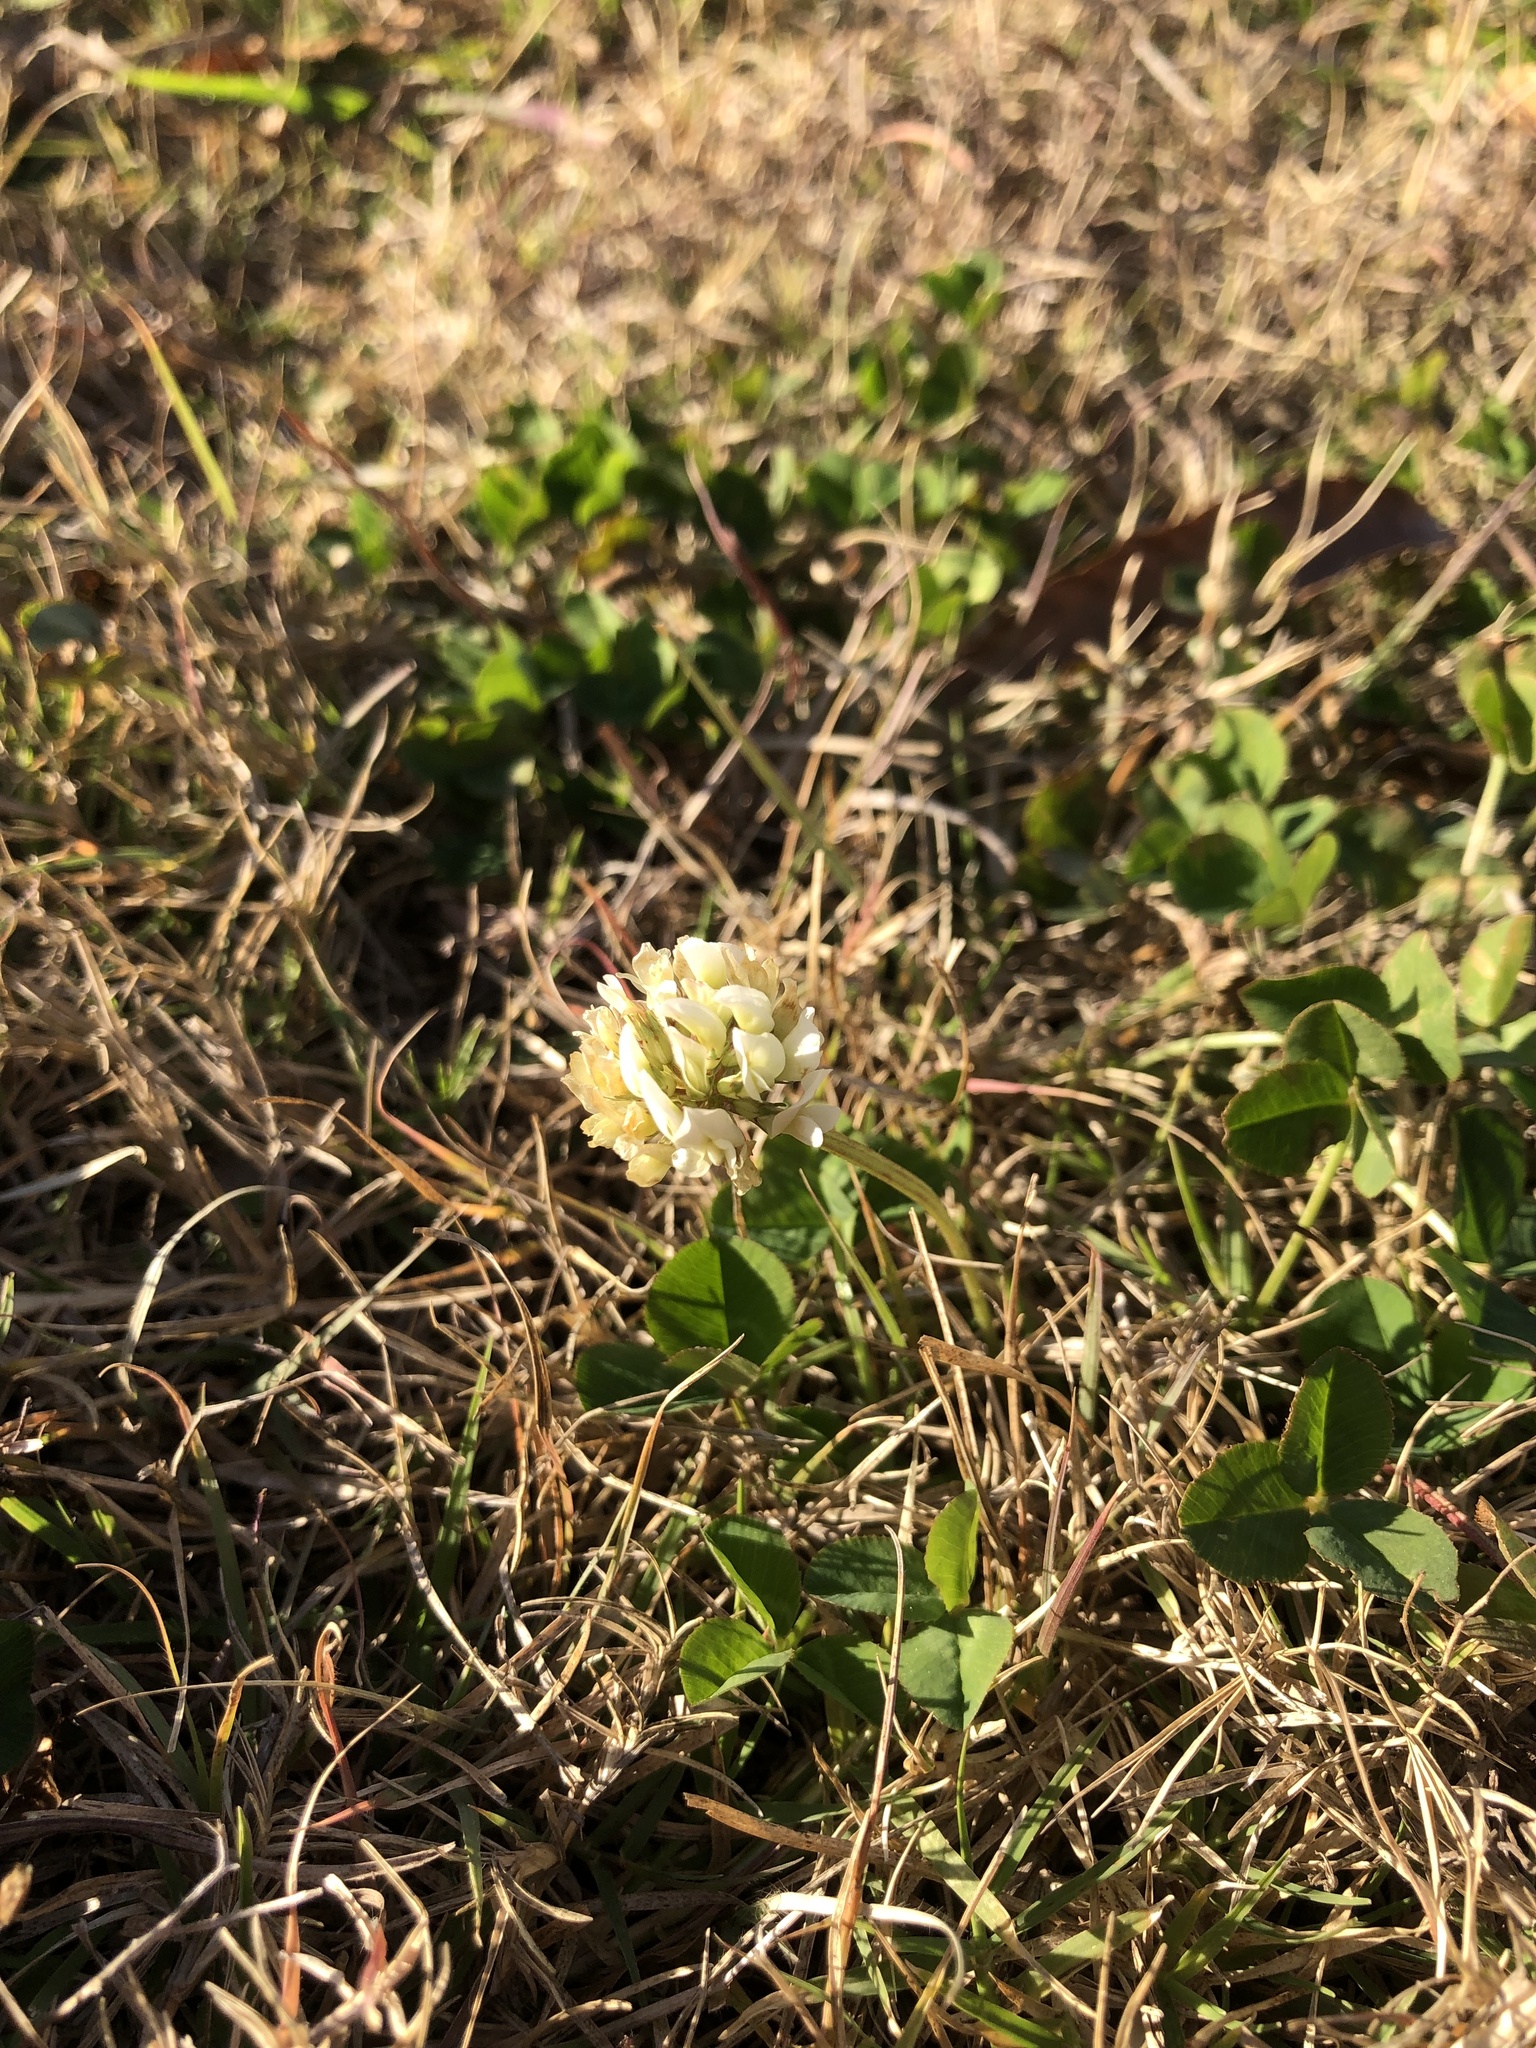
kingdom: Plantae
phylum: Tracheophyta
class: Magnoliopsida
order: Fabales
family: Fabaceae
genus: Trifolium
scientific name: Trifolium repens
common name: White clover
